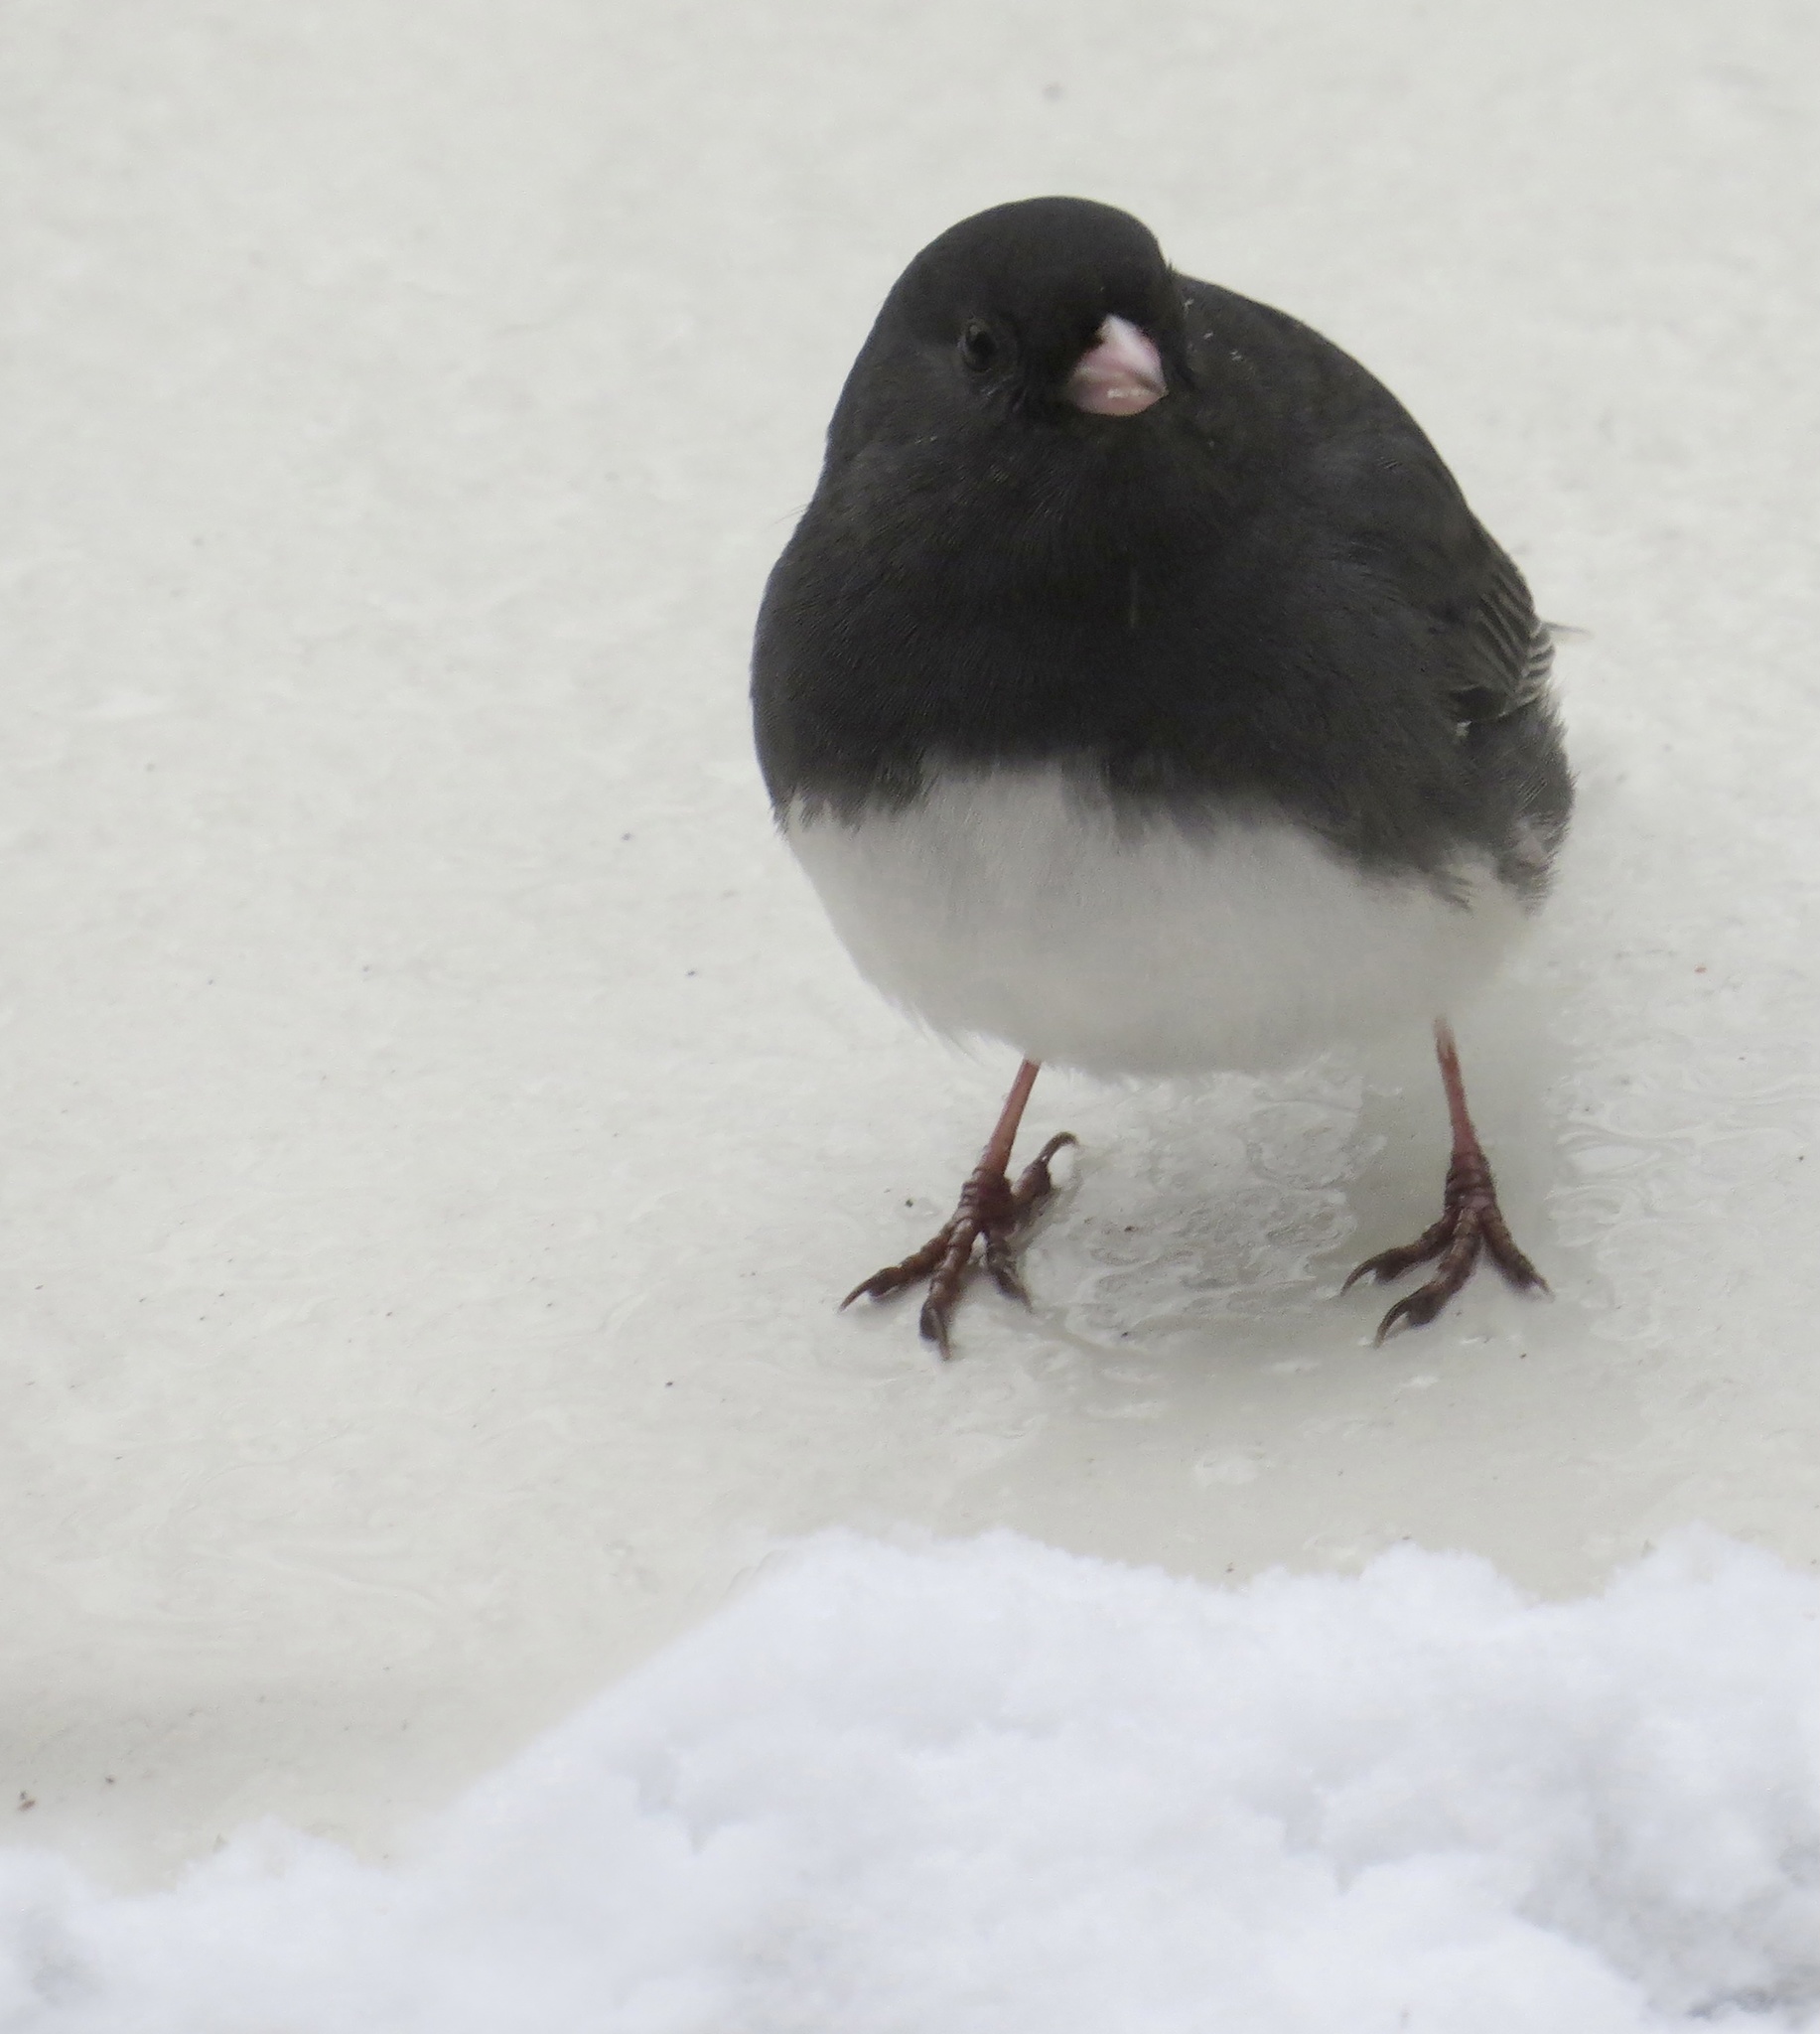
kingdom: Animalia
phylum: Chordata
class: Aves
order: Passeriformes
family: Passerellidae
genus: Junco
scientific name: Junco hyemalis
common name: Dark-eyed junco
